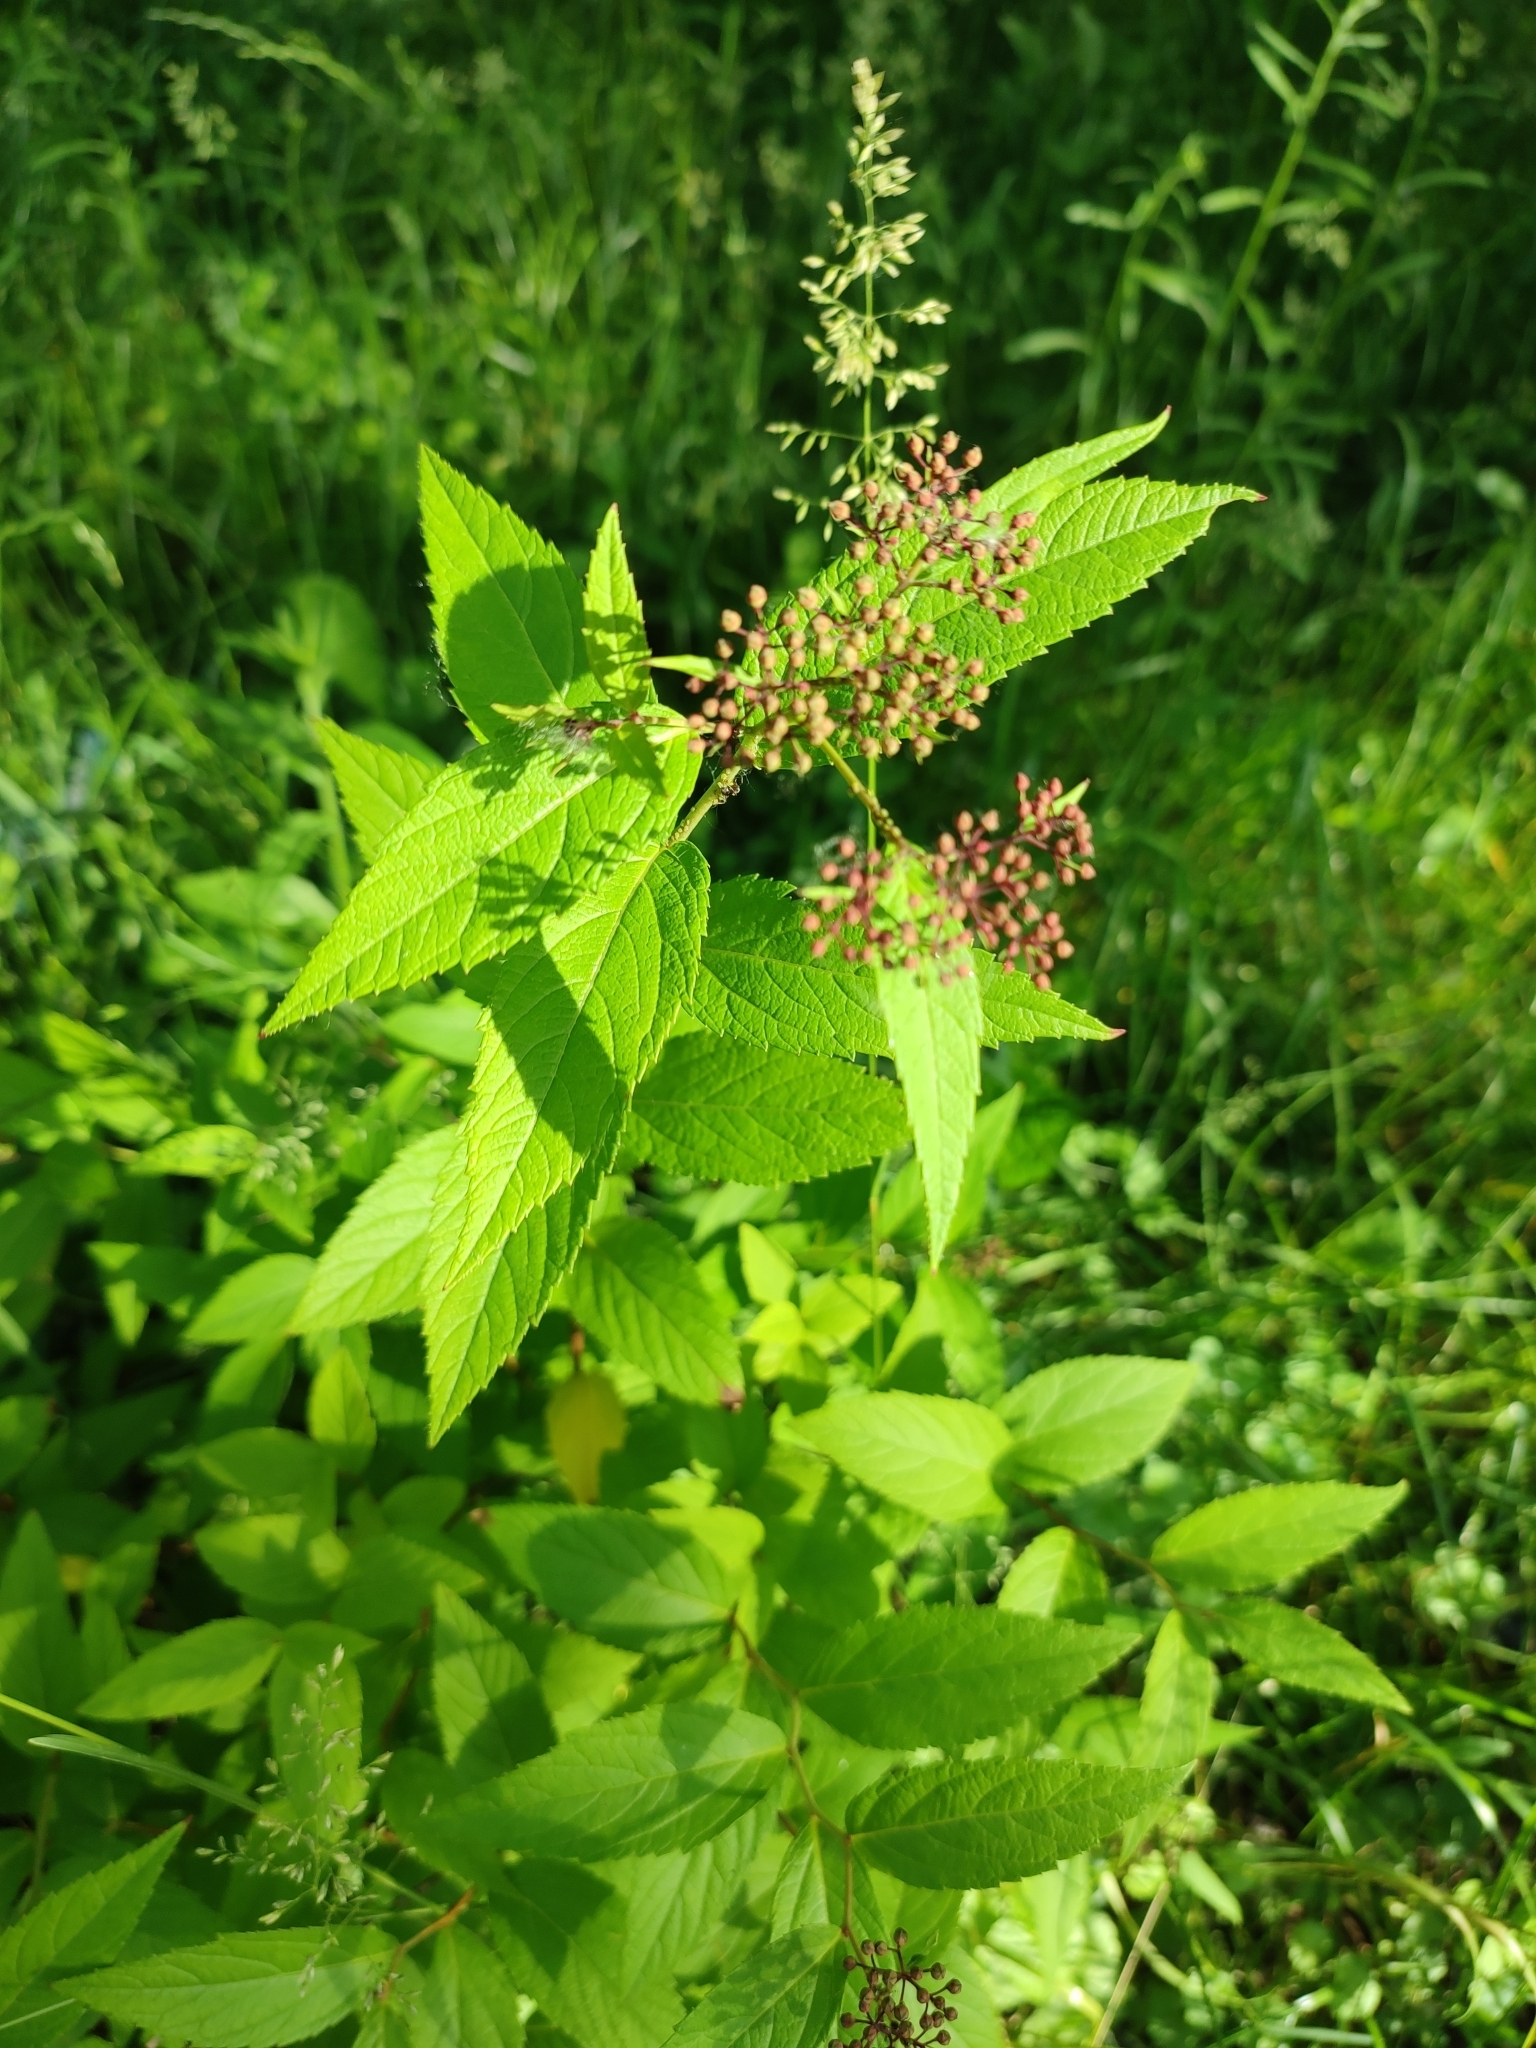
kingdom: Plantae
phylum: Tracheophyta
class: Magnoliopsida
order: Rosales
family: Rosaceae
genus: Spiraea
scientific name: Spiraea japonica
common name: Japanese spiraea
